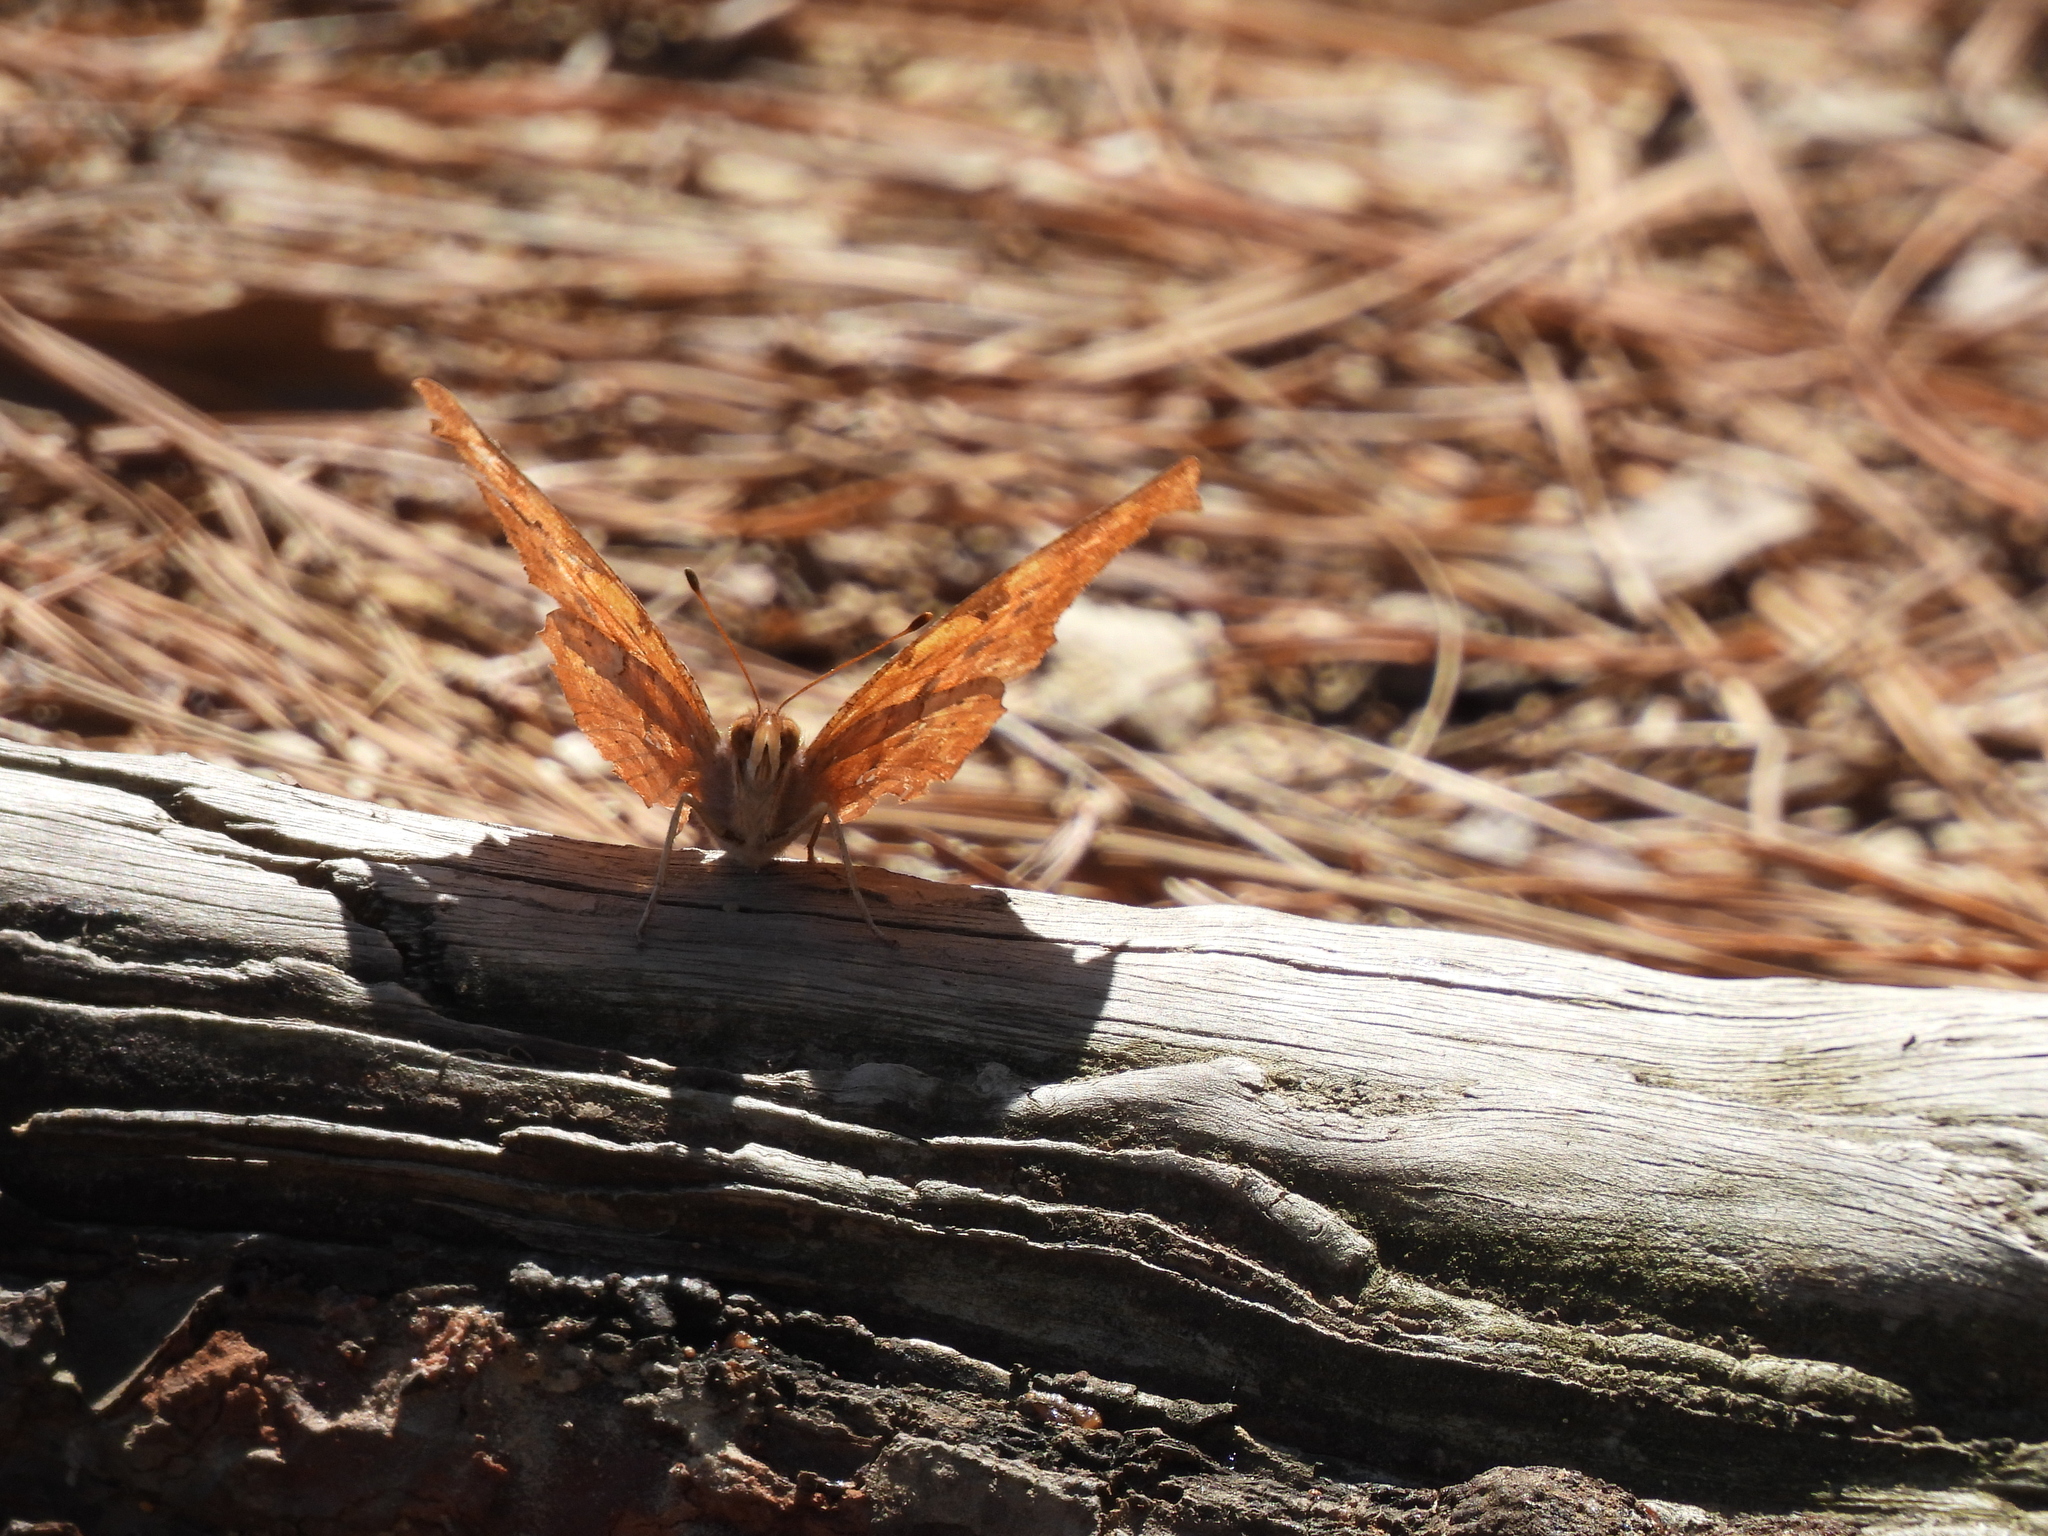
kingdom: Animalia
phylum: Arthropoda
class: Insecta
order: Lepidoptera
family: Nymphalidae
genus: Polygonia
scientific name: Polygonia interrogationis
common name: Question mark
